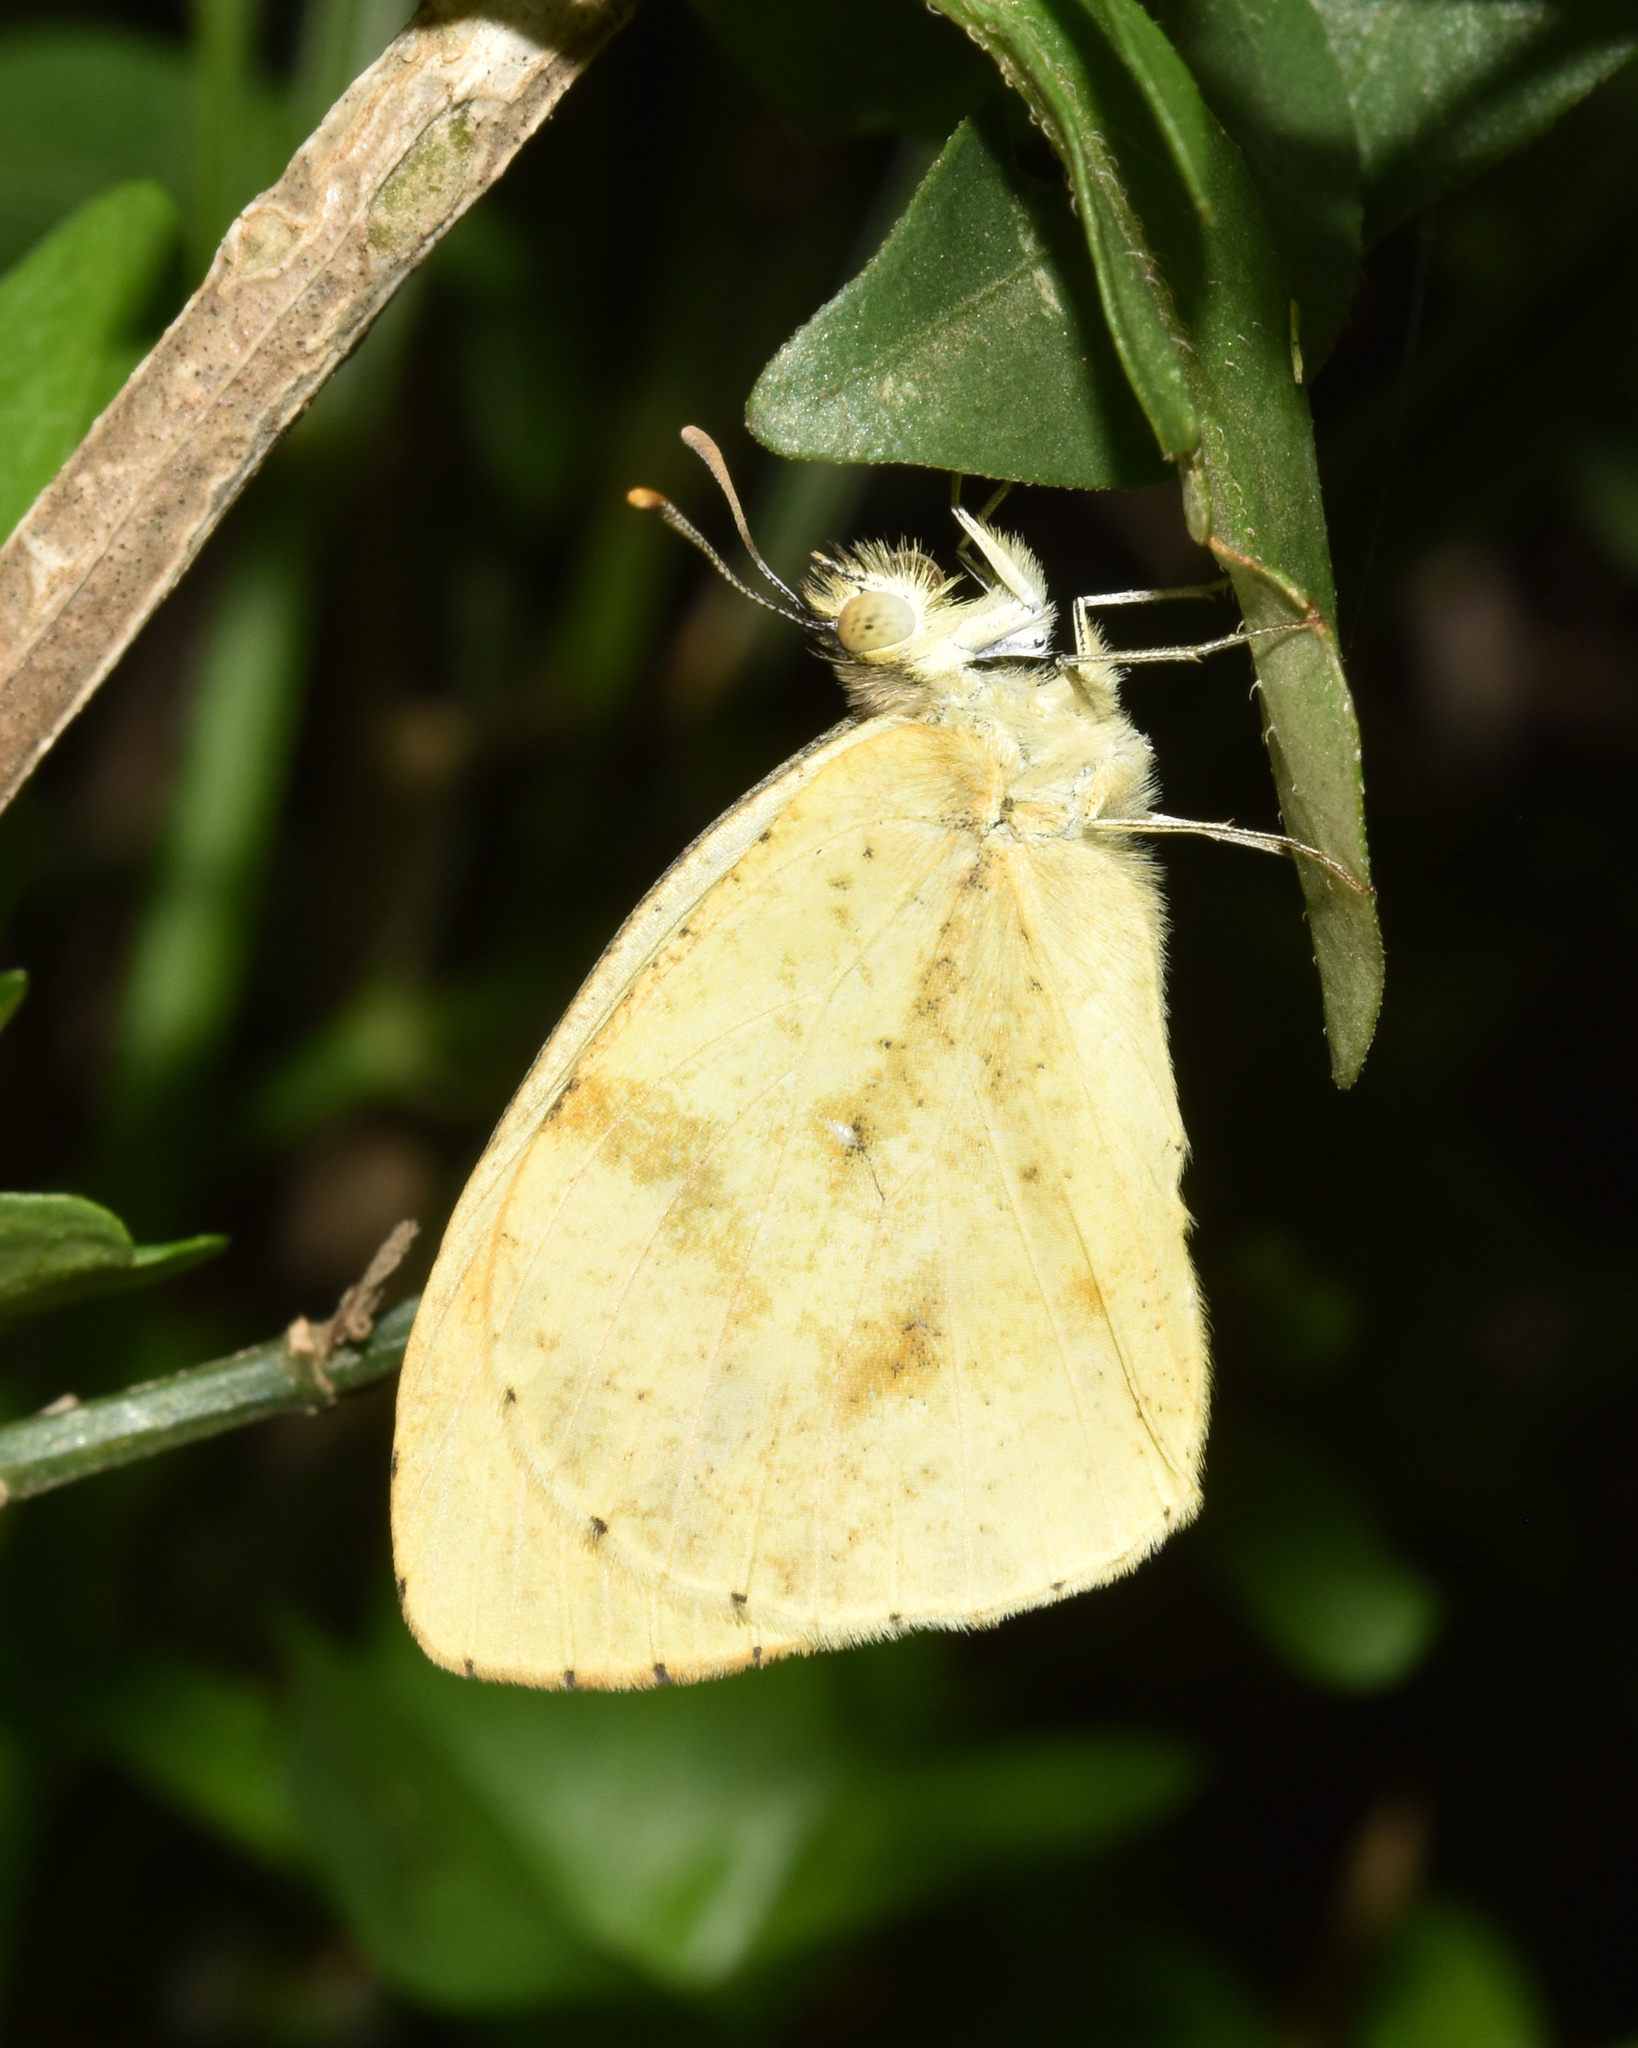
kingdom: Animalia
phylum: Arthropoda
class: Insecta
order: Lepidoptera
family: Pieridae
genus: Colotis
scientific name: Colotis auxo
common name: Sulphur orange tip
